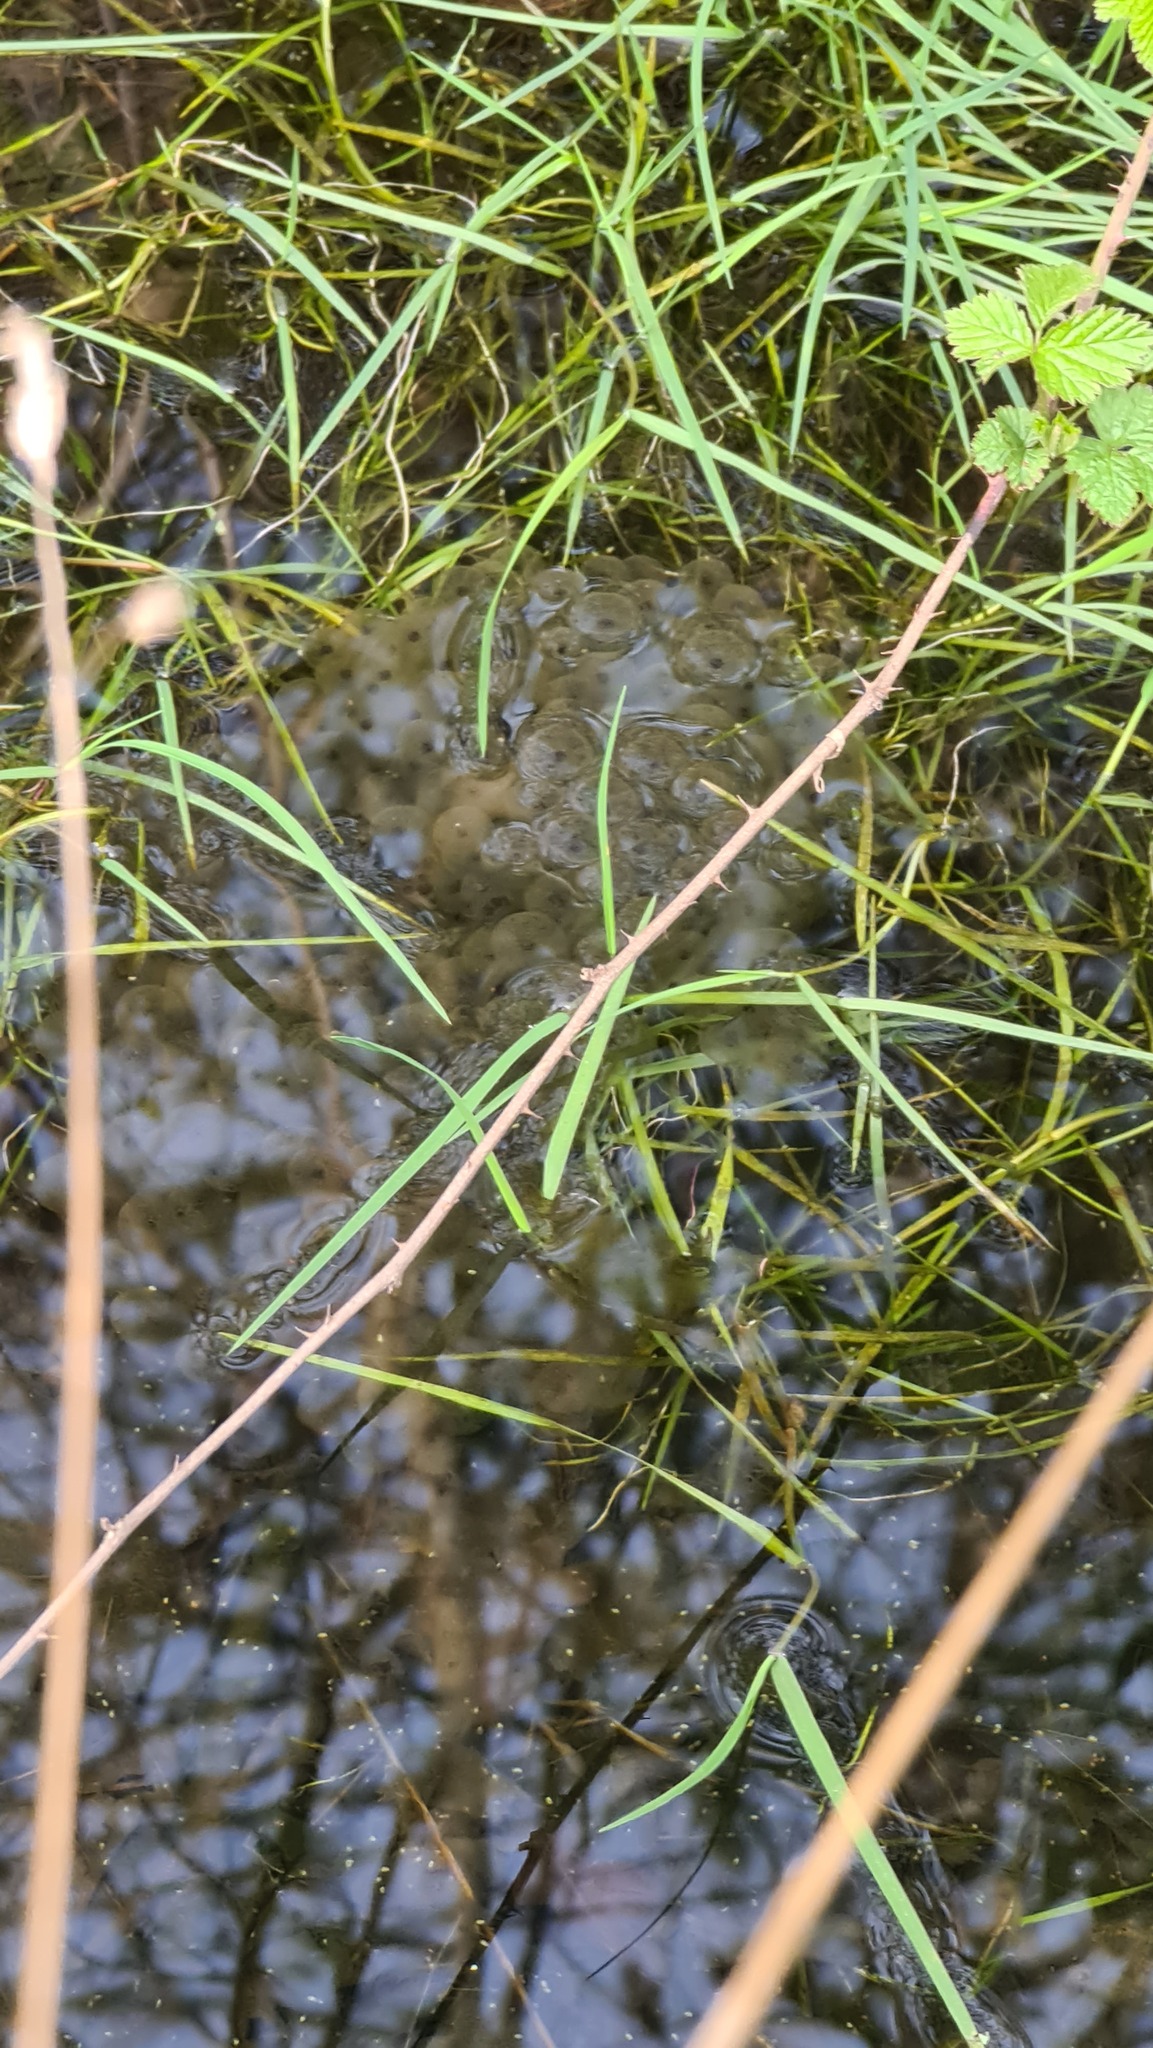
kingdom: Animalia
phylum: Chordata
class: Amphibia
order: Anura
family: Ranidae
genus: Rana
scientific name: Rana temporaria
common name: Common frog
